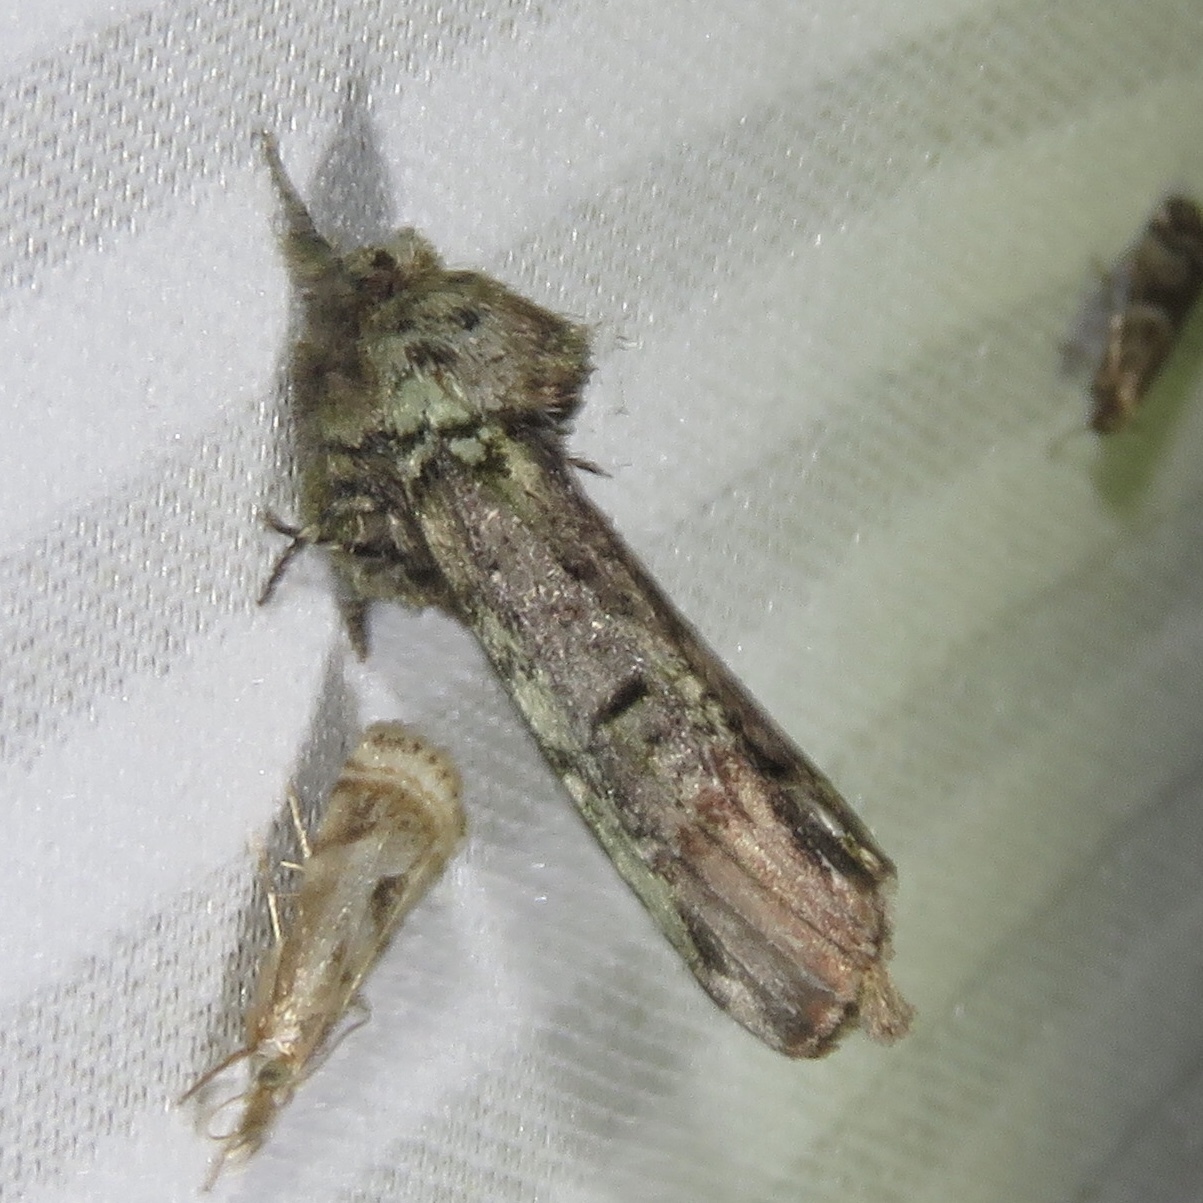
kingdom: Animalia
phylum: Arthropoda
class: Insecta
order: Lepidoptera
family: Notodontidae
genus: Schizura
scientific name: Schizura
